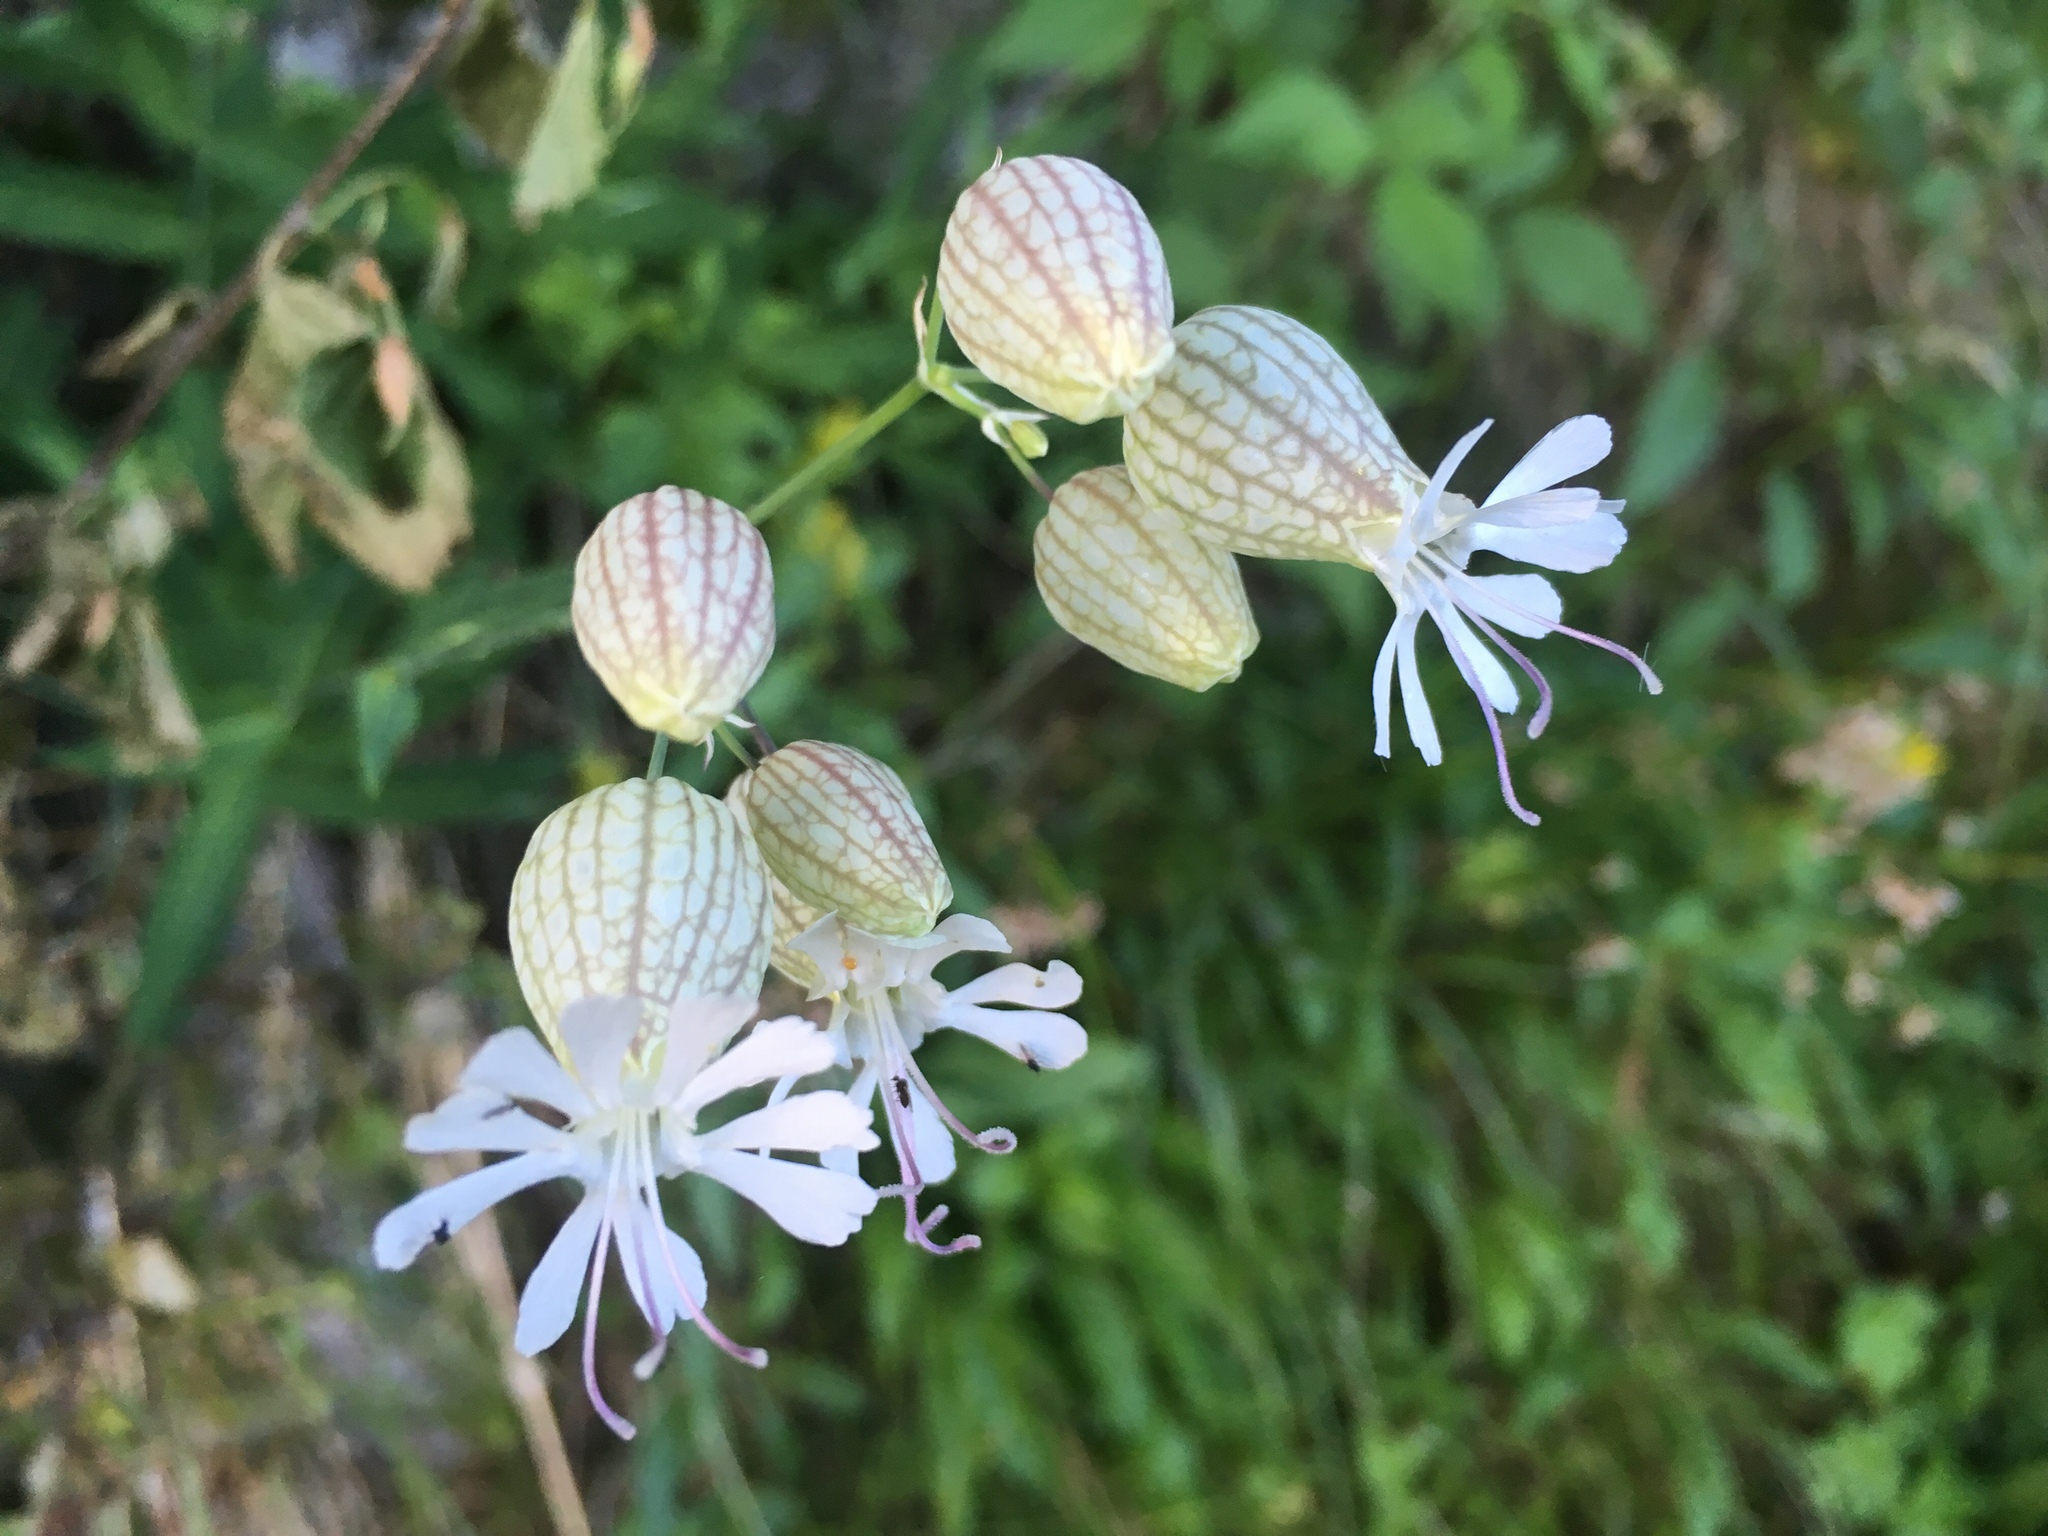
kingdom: Plantae
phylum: Tracheophyta
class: Magnoliopsida
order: Caryophyllales
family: Caryophyllaceae
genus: Silene
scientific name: Silene vulgaris
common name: Bladder campion
